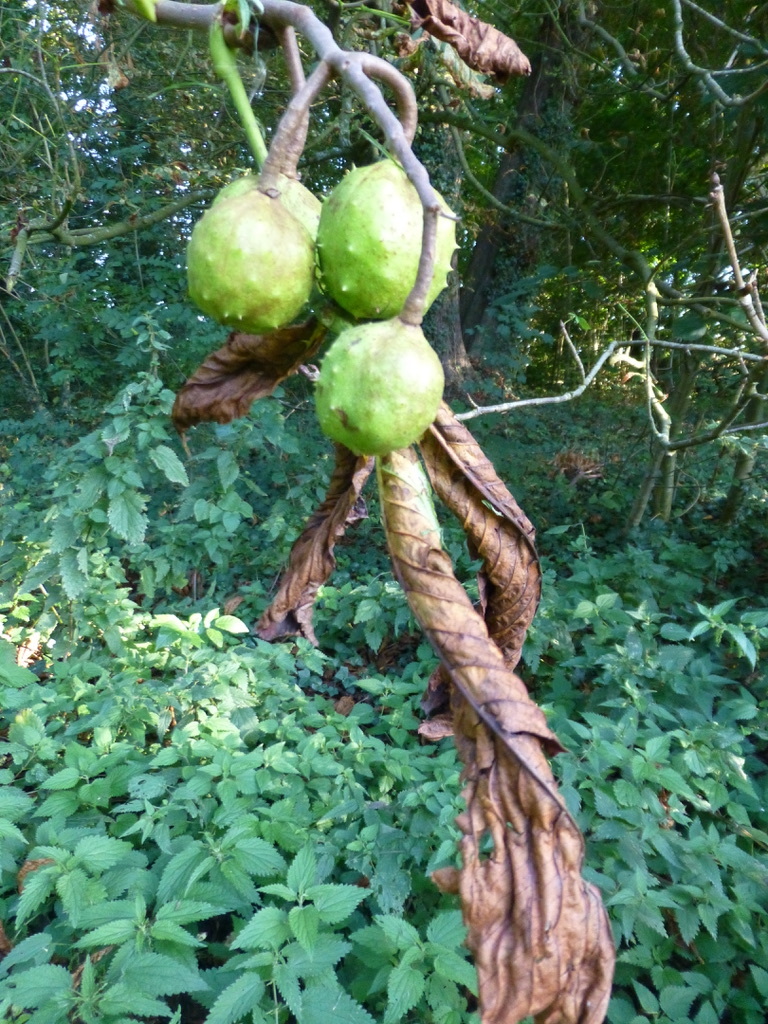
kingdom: Plantae
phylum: Tracheophyta
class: Magnoliopsida
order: Sapindales
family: Sapindaceae
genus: Aesculus
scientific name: Aesculus hippocastanum
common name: Horse-chestnut
